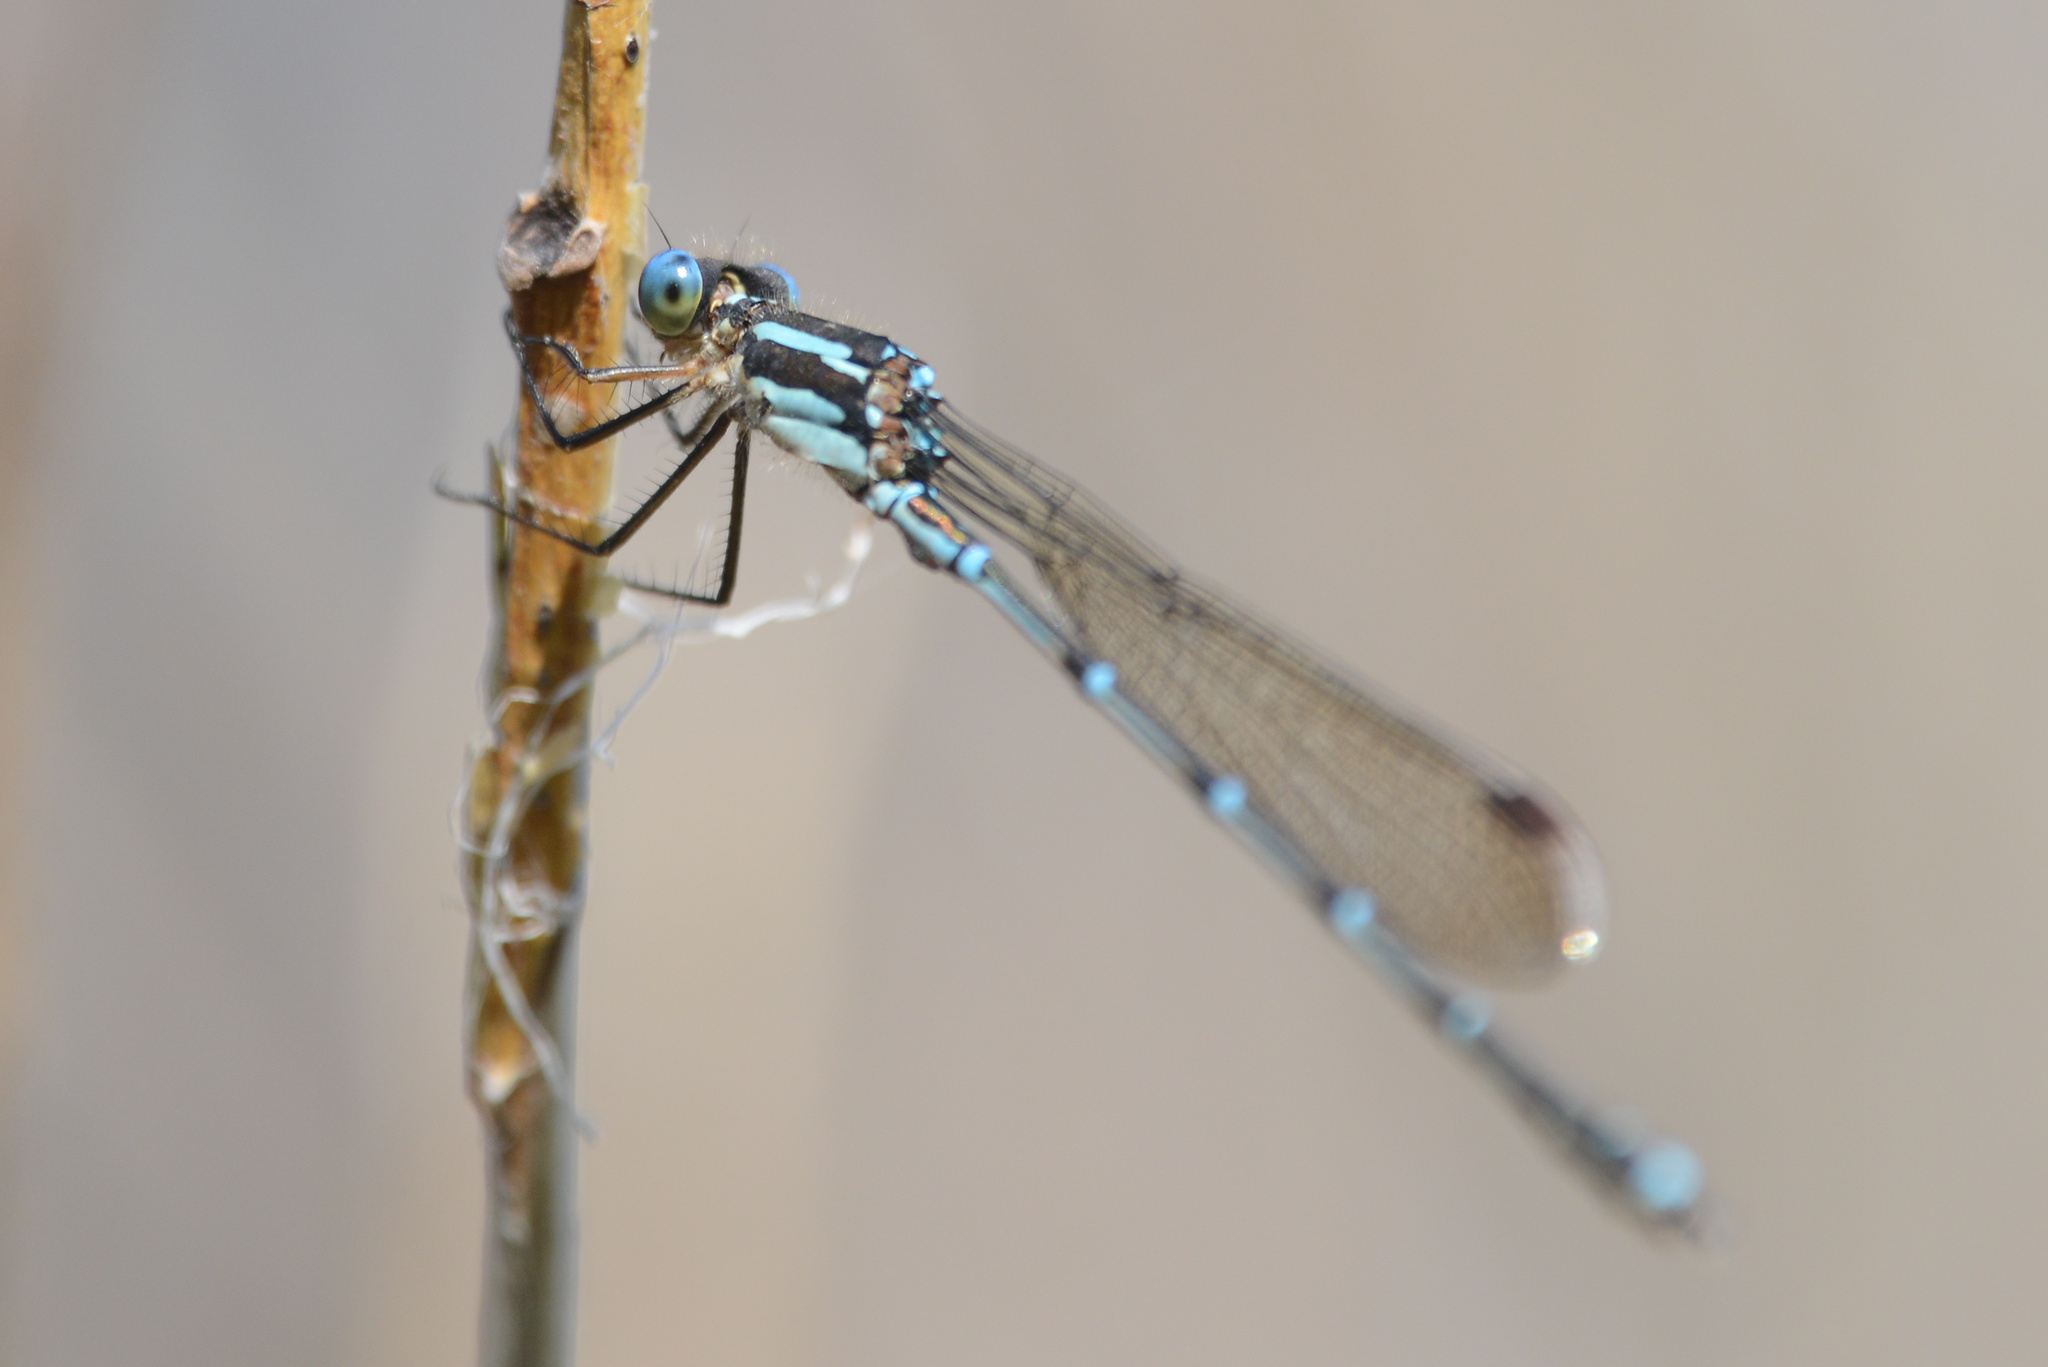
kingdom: Animalia
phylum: Arthropoda
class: Insecta
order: Odonata
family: Lestidae
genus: Austrolestes
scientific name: Austrolestes colensonis
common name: Blue damselfly
